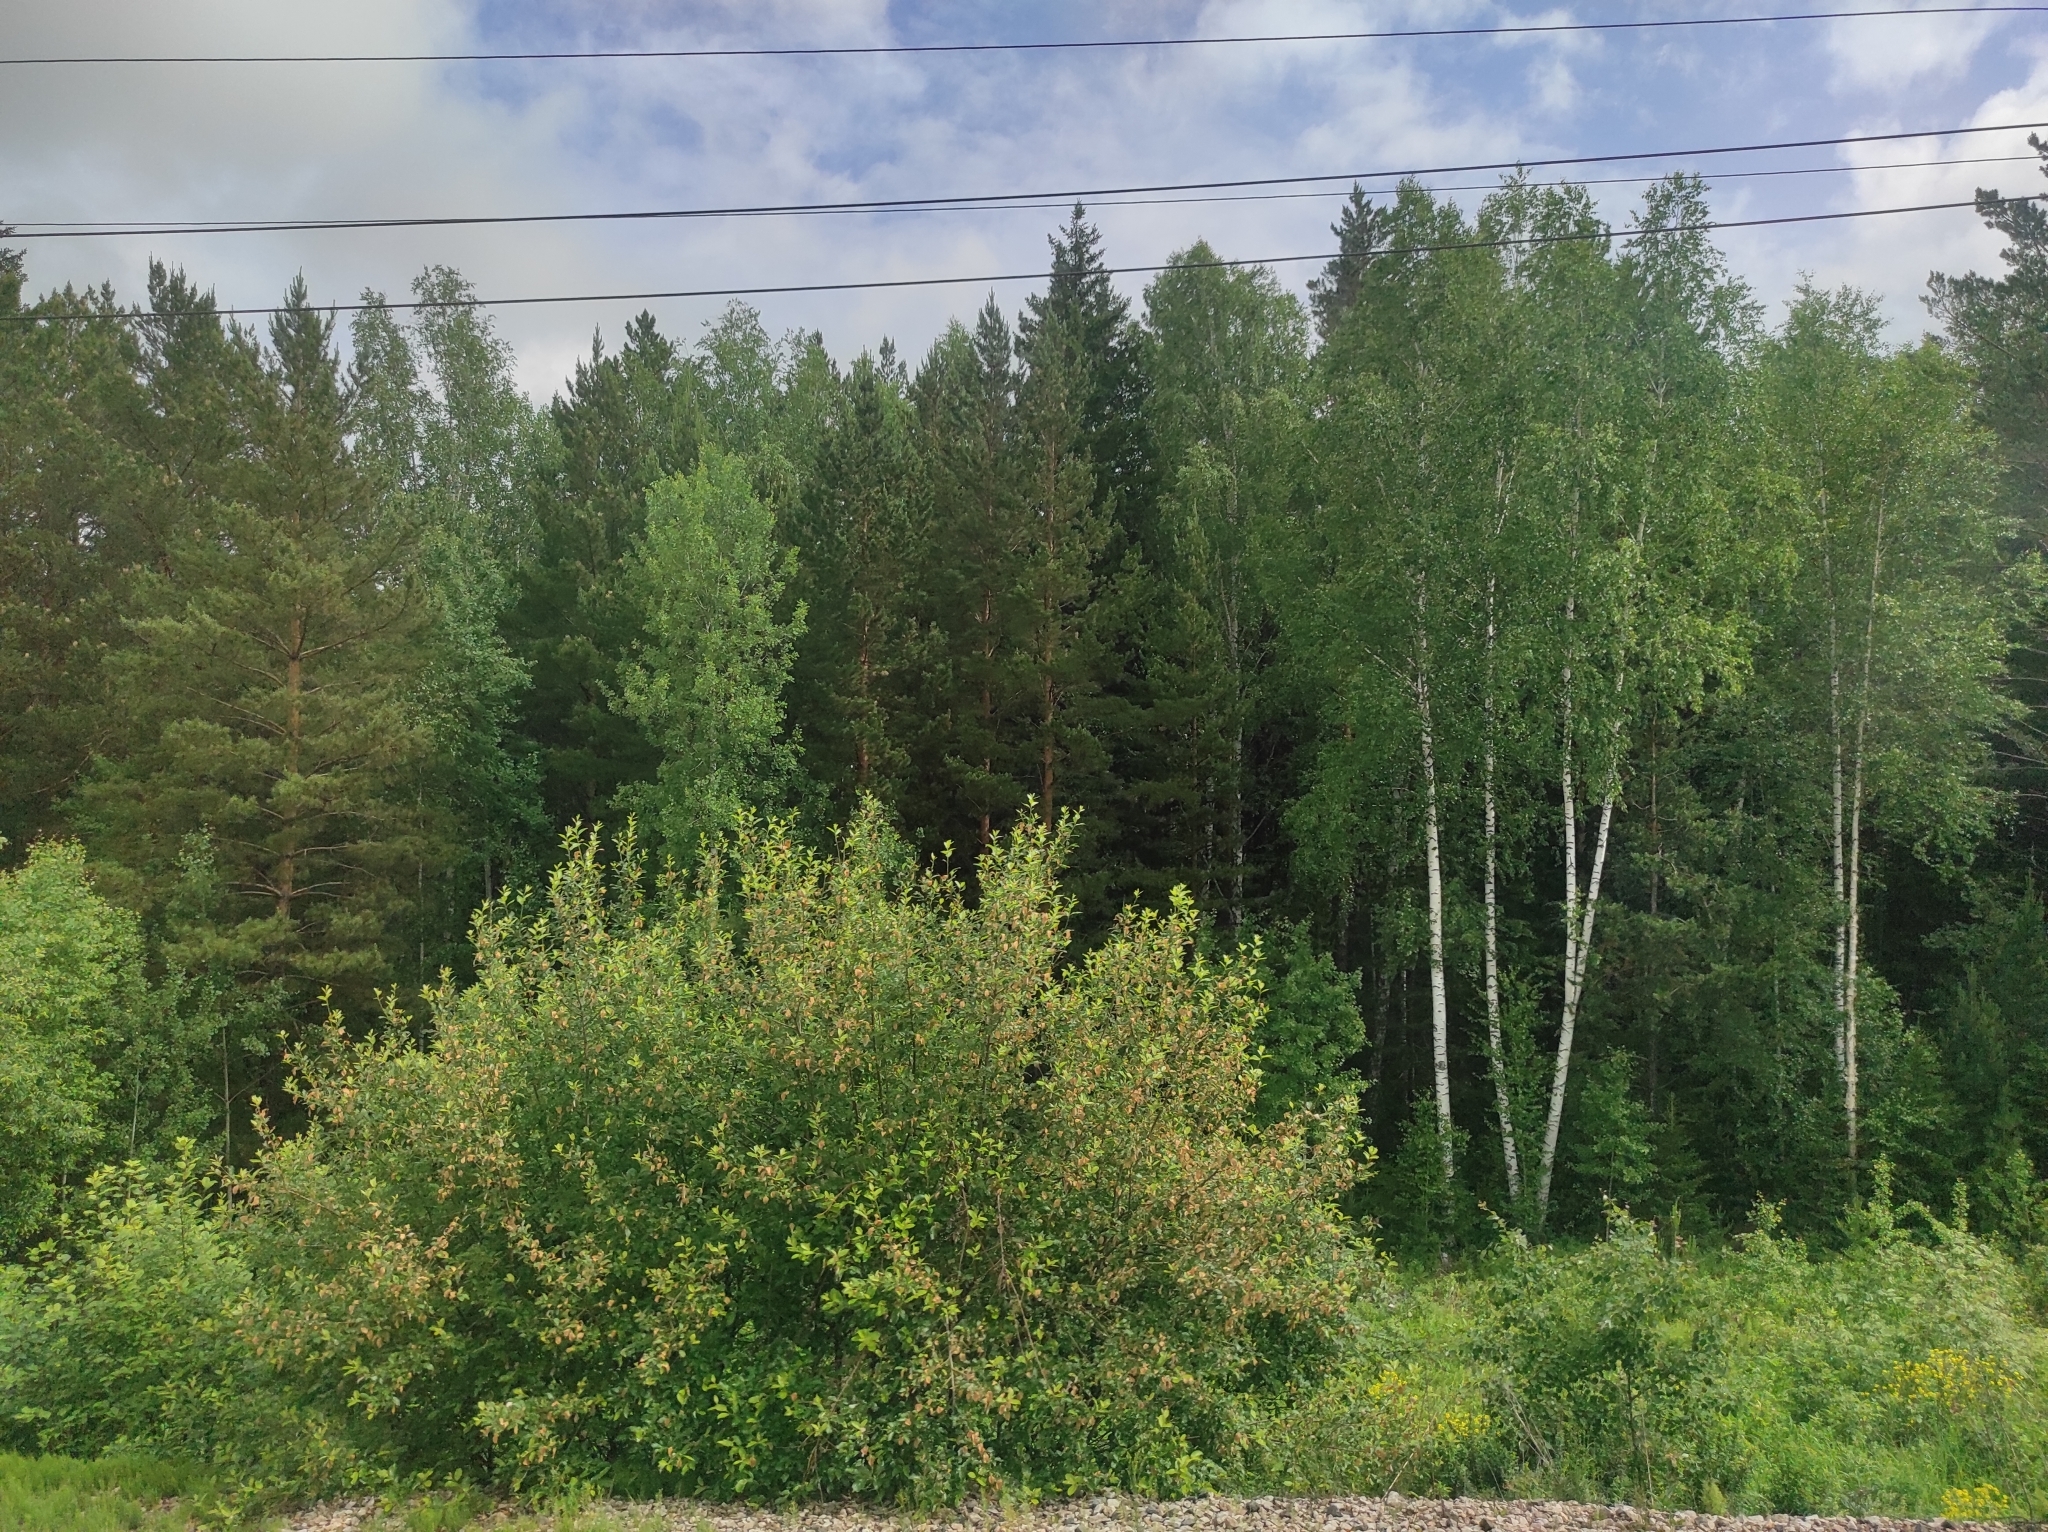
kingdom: Plantae
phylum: Tracheophyta
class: Magnoliopsida
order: Fagales
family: Betulaceae
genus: Betula
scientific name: Betula pendula
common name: Silver birch
